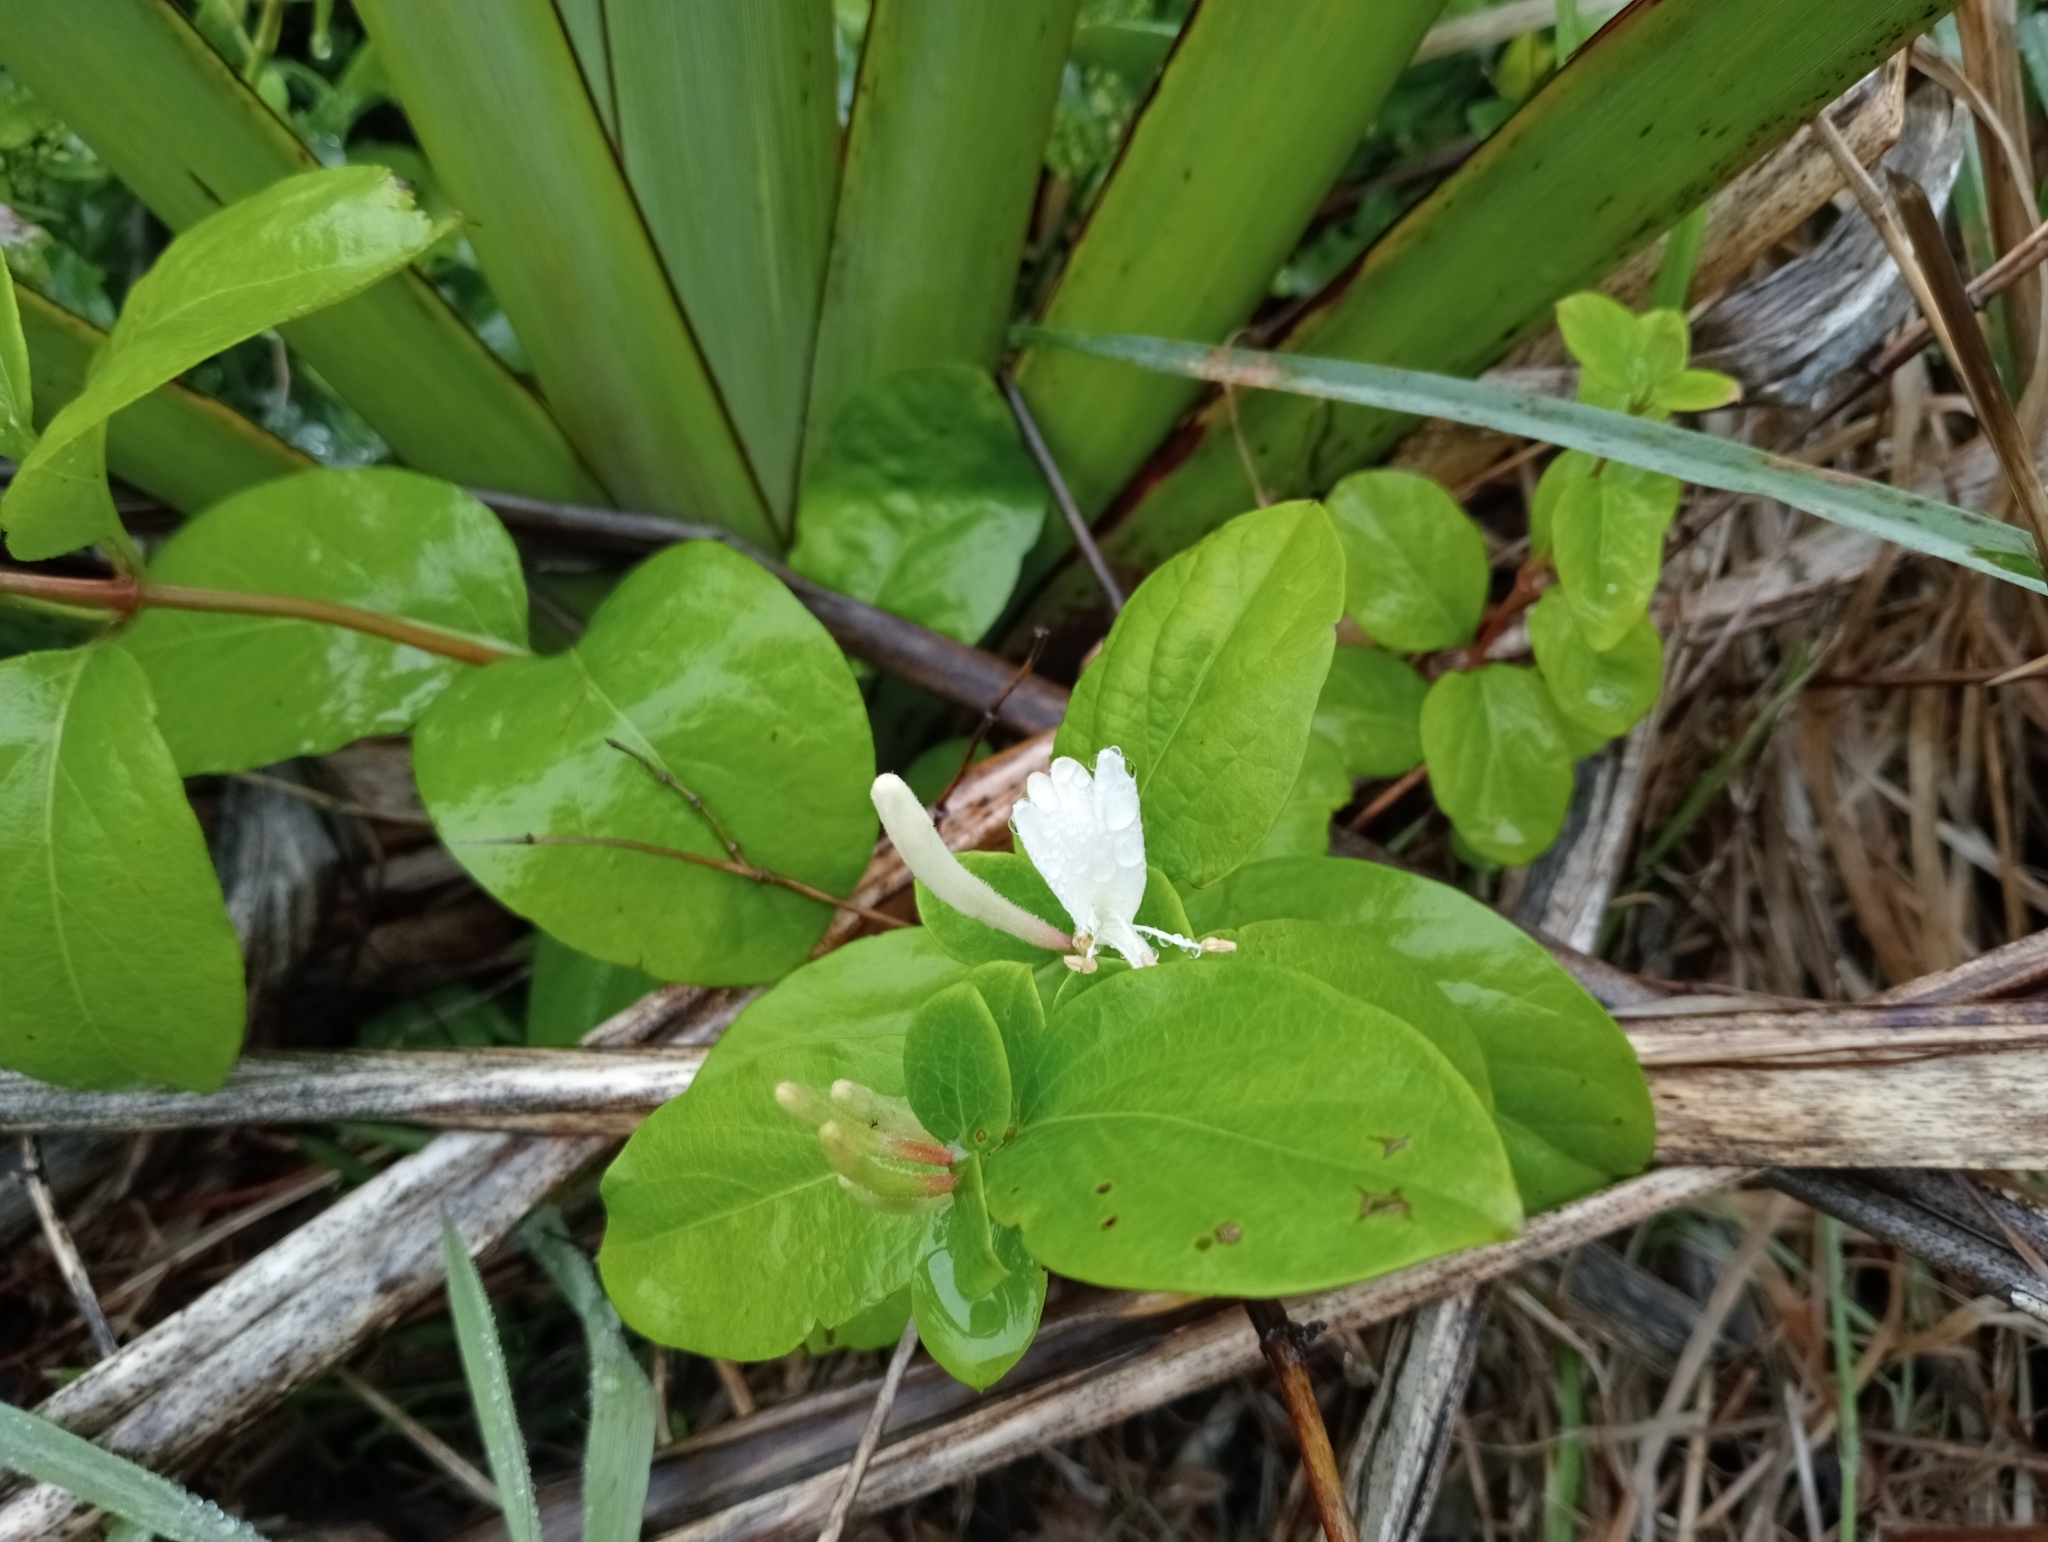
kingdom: Plantae
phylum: Tracheophyta
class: Magnoliopsida
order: Dipsacales
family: Caprifoliaceae
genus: Lonicera
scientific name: Lonicera japonica
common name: Japanese honeysuckle
